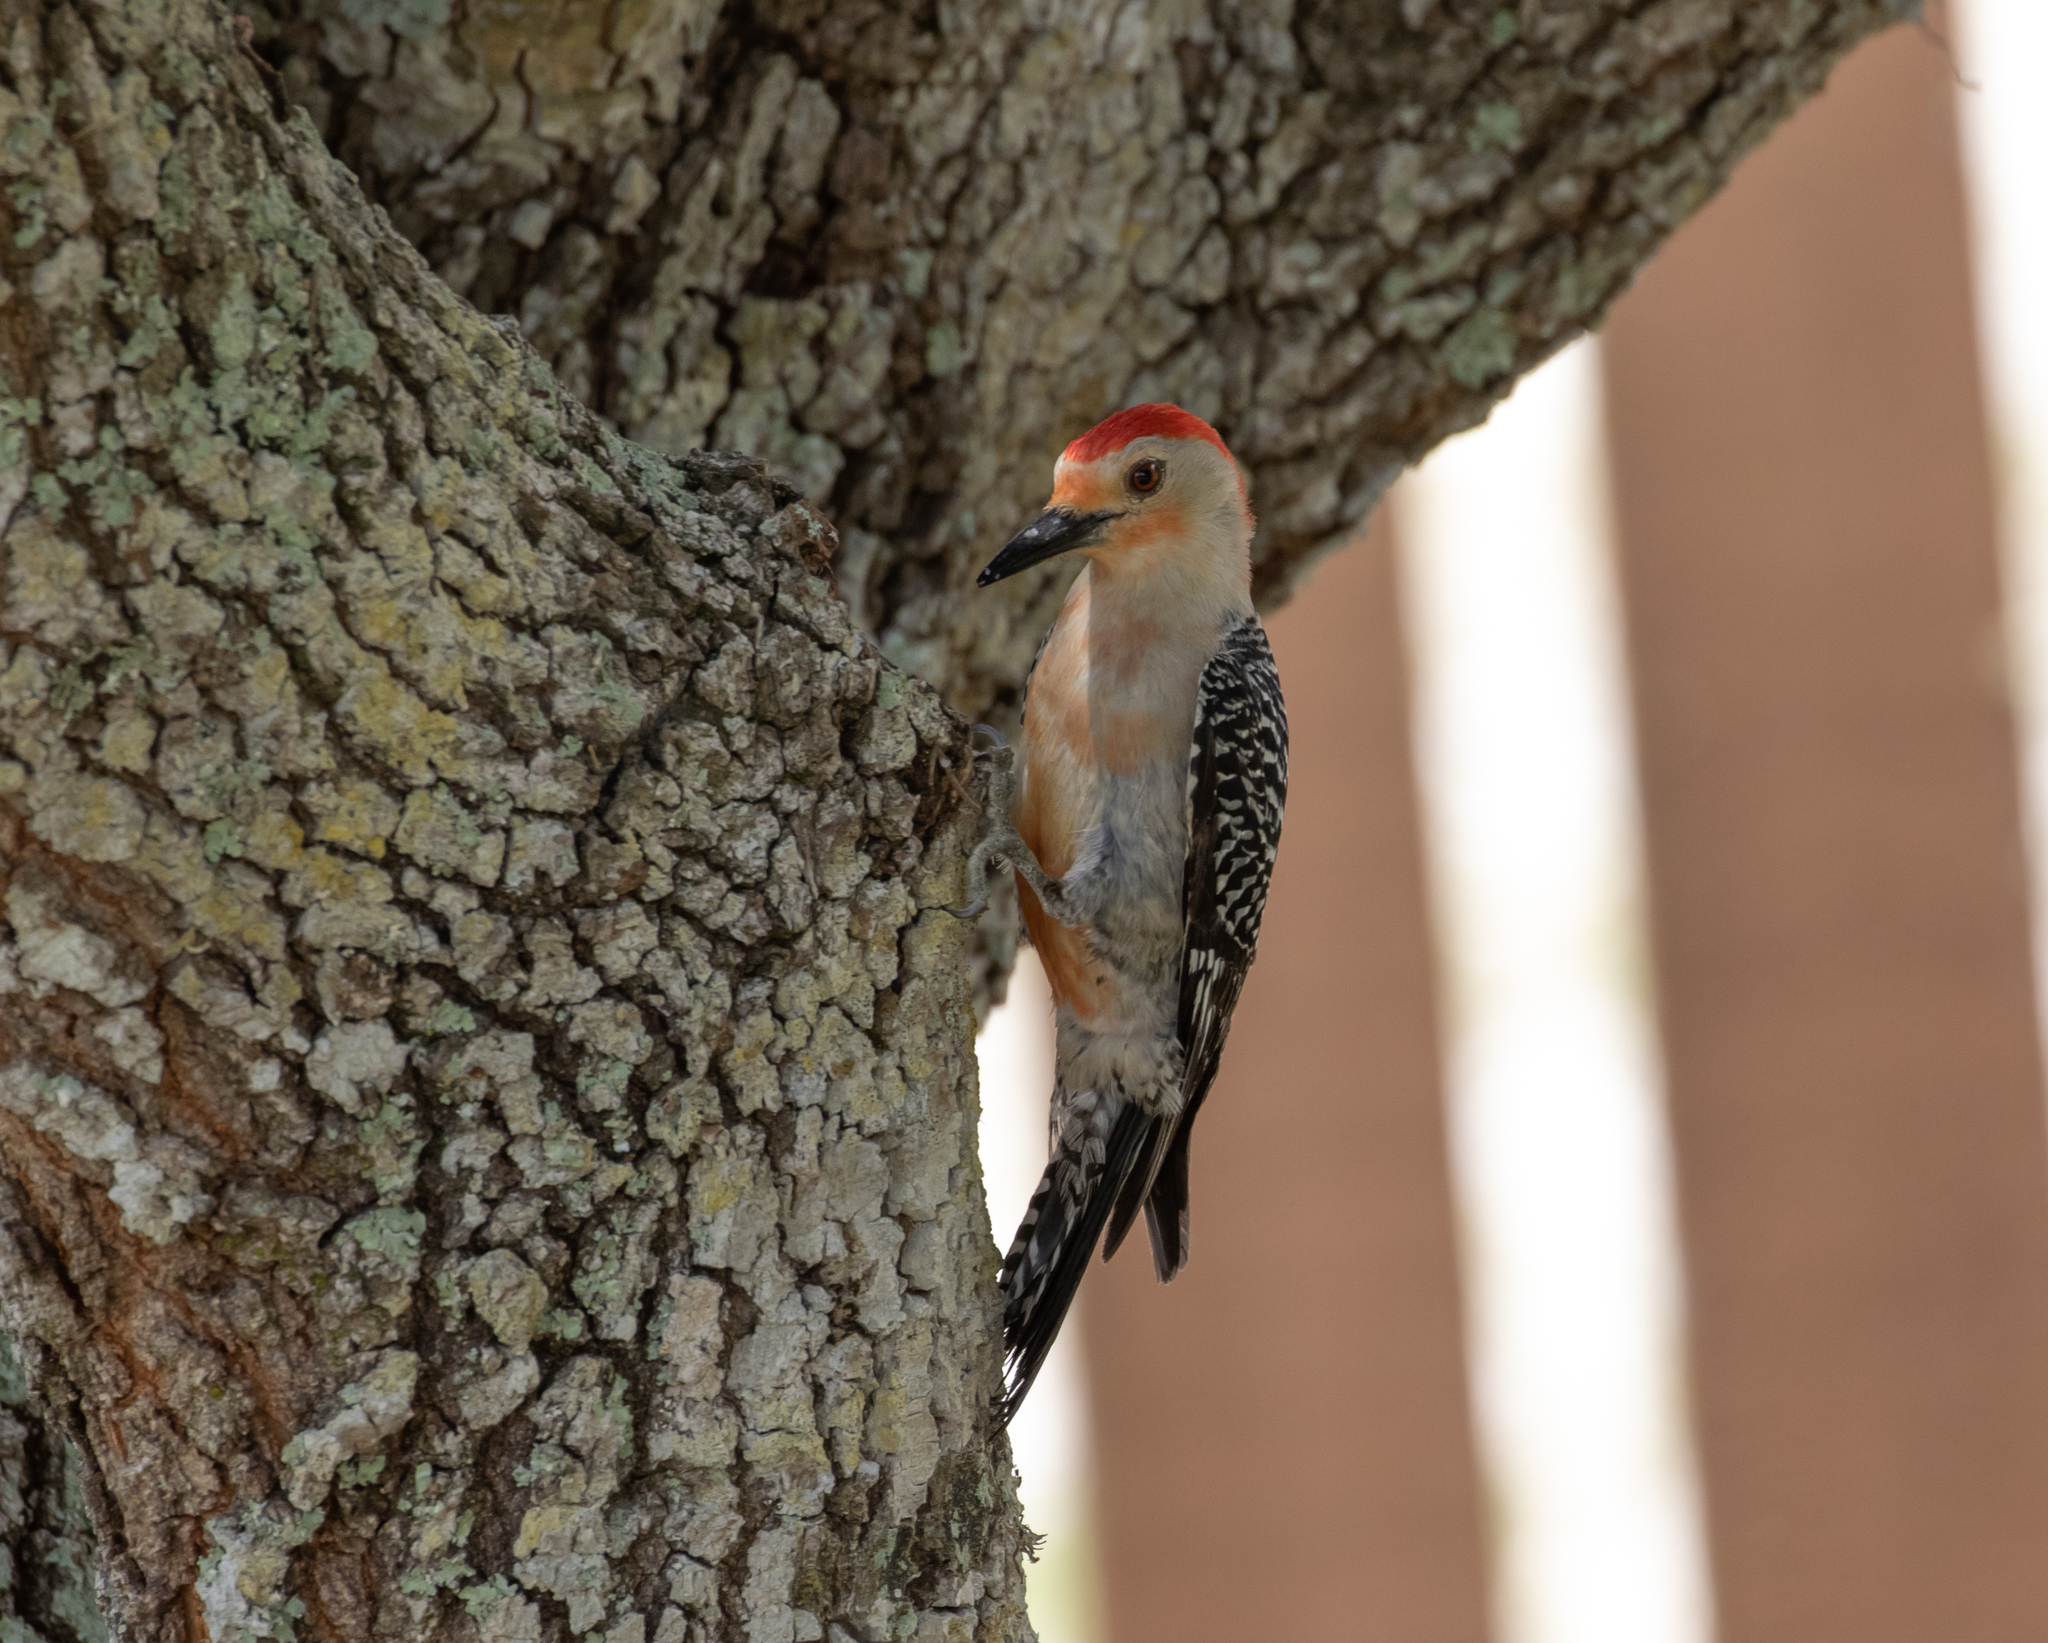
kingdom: Animalia
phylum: Chordata
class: Aves
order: Piciformes
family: Picidae
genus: Melanerpes
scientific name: Melanerpes carolinus
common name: Red-bellied woodpecker
